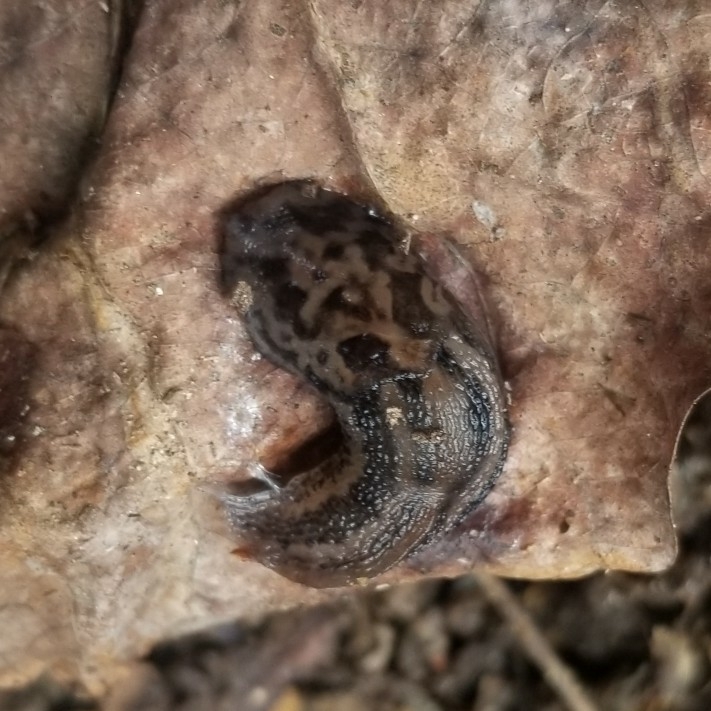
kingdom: Animalia
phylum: Mollusca
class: Gastropoda
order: Stylommatophora
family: Limacidae
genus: Limax
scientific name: Limax maximus
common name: Great grey slug
